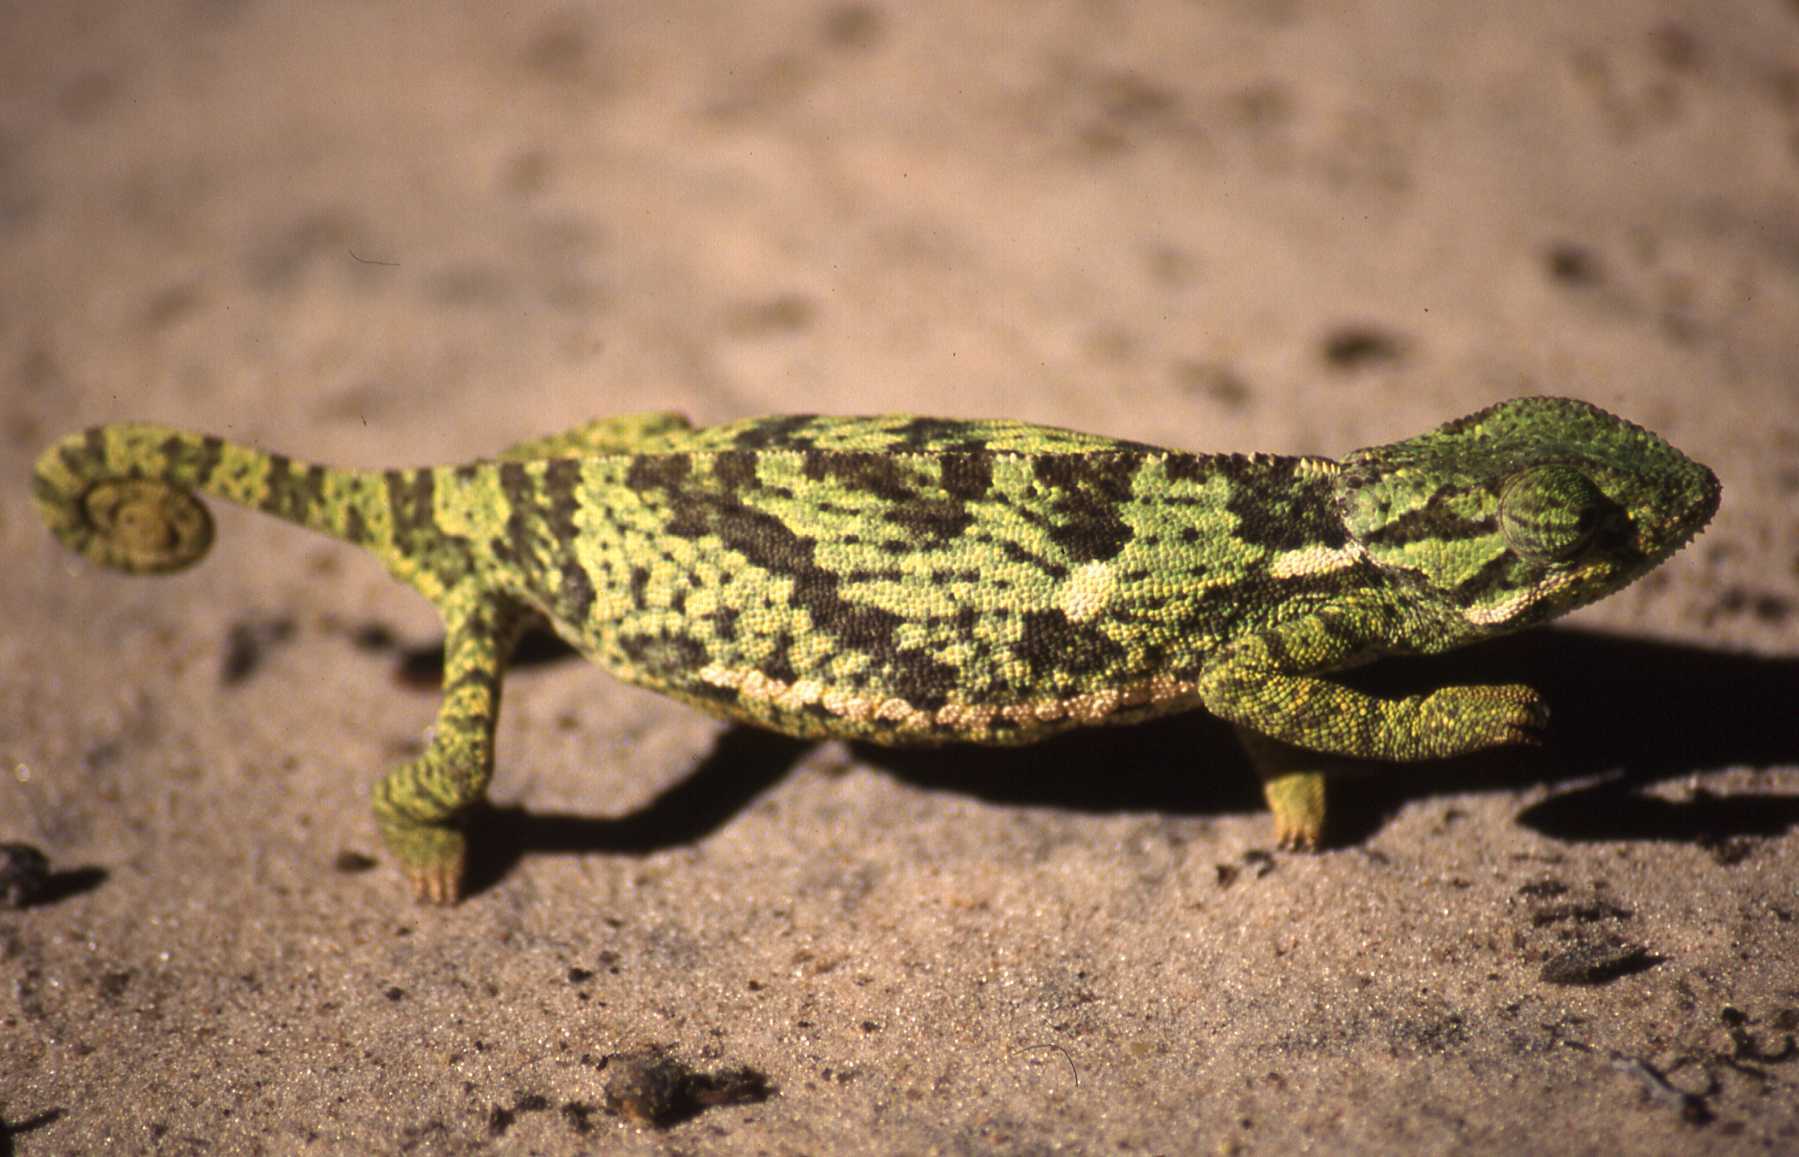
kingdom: Animalia
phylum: Chordata
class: Squamata
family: Chamaeleonidae
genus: Chamaeleo
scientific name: Chamaeleo dilepis
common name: Flapneck chameleon
